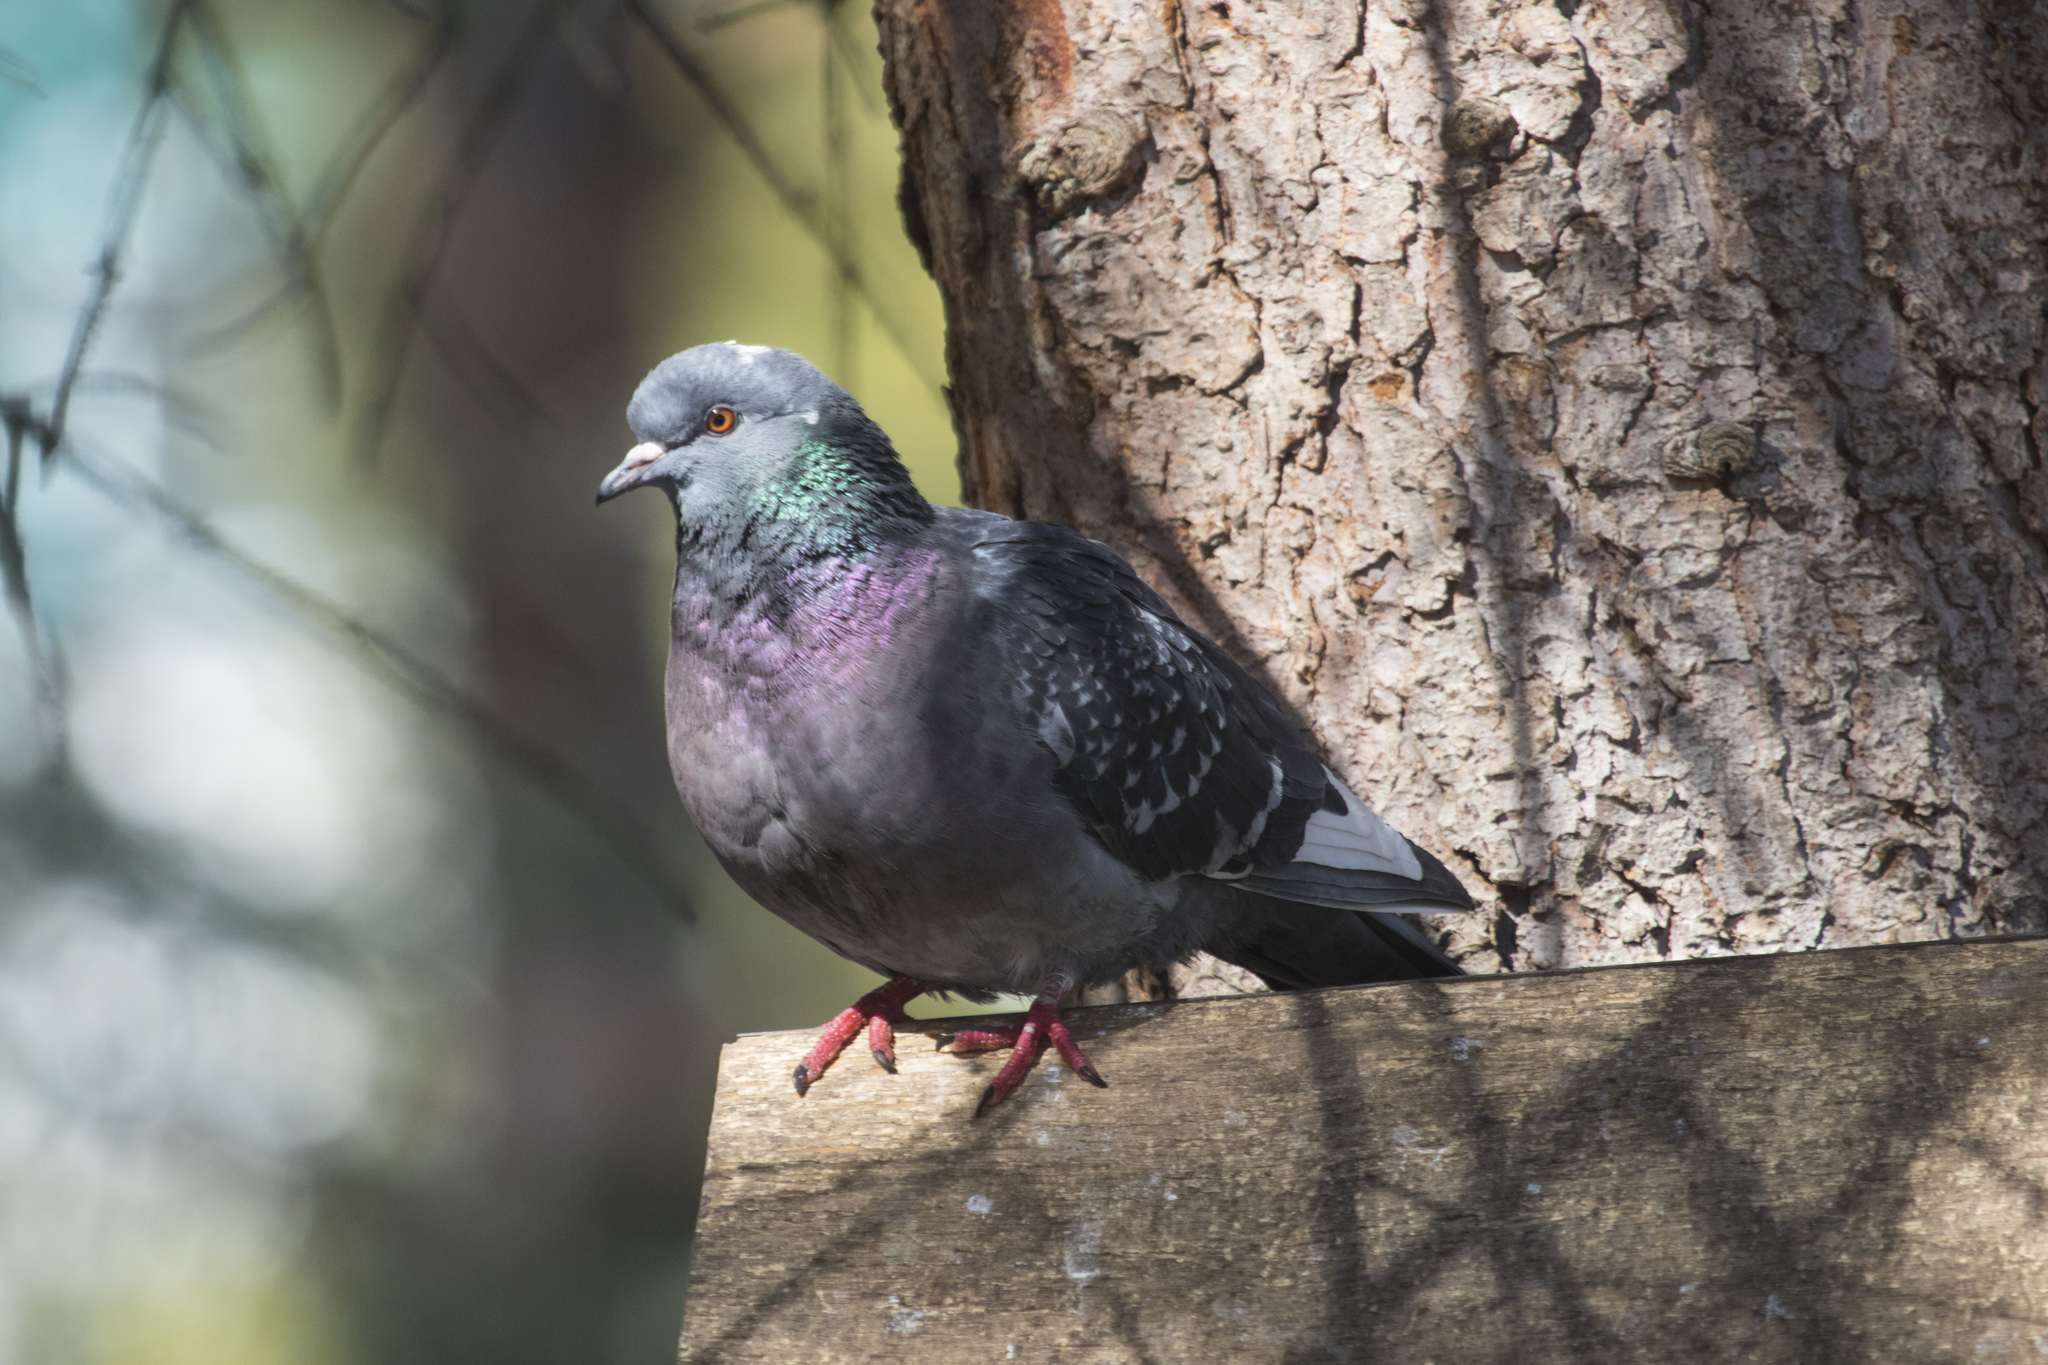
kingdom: Animalia
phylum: Chordata
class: Aves
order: Columbiformes
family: Columbidae
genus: Columba
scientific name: Columba livia
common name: Rock pigeon
